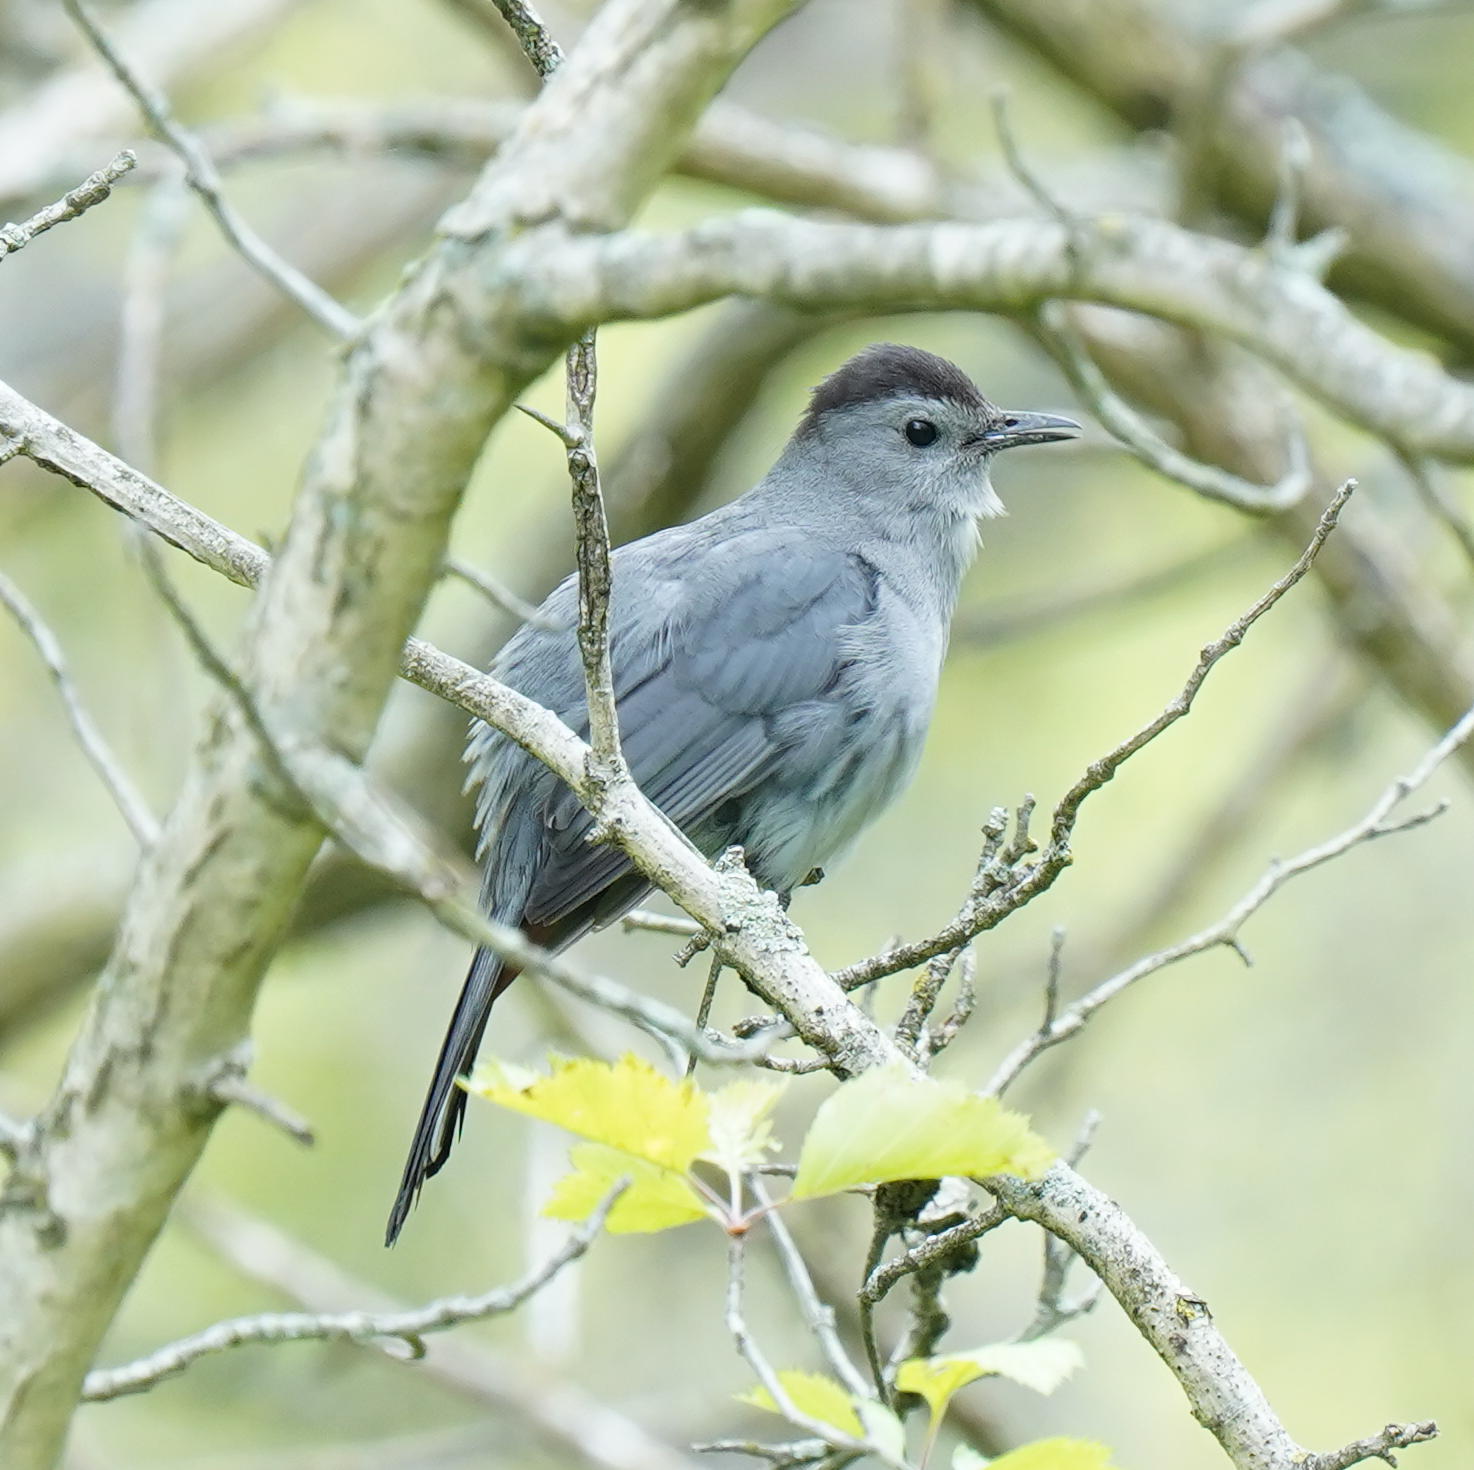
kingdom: Animalia
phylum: Chordata
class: Aves
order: Passeriformes
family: Mimidae
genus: Dumetella
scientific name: Dumetella carolinensis
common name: Gray catbird
